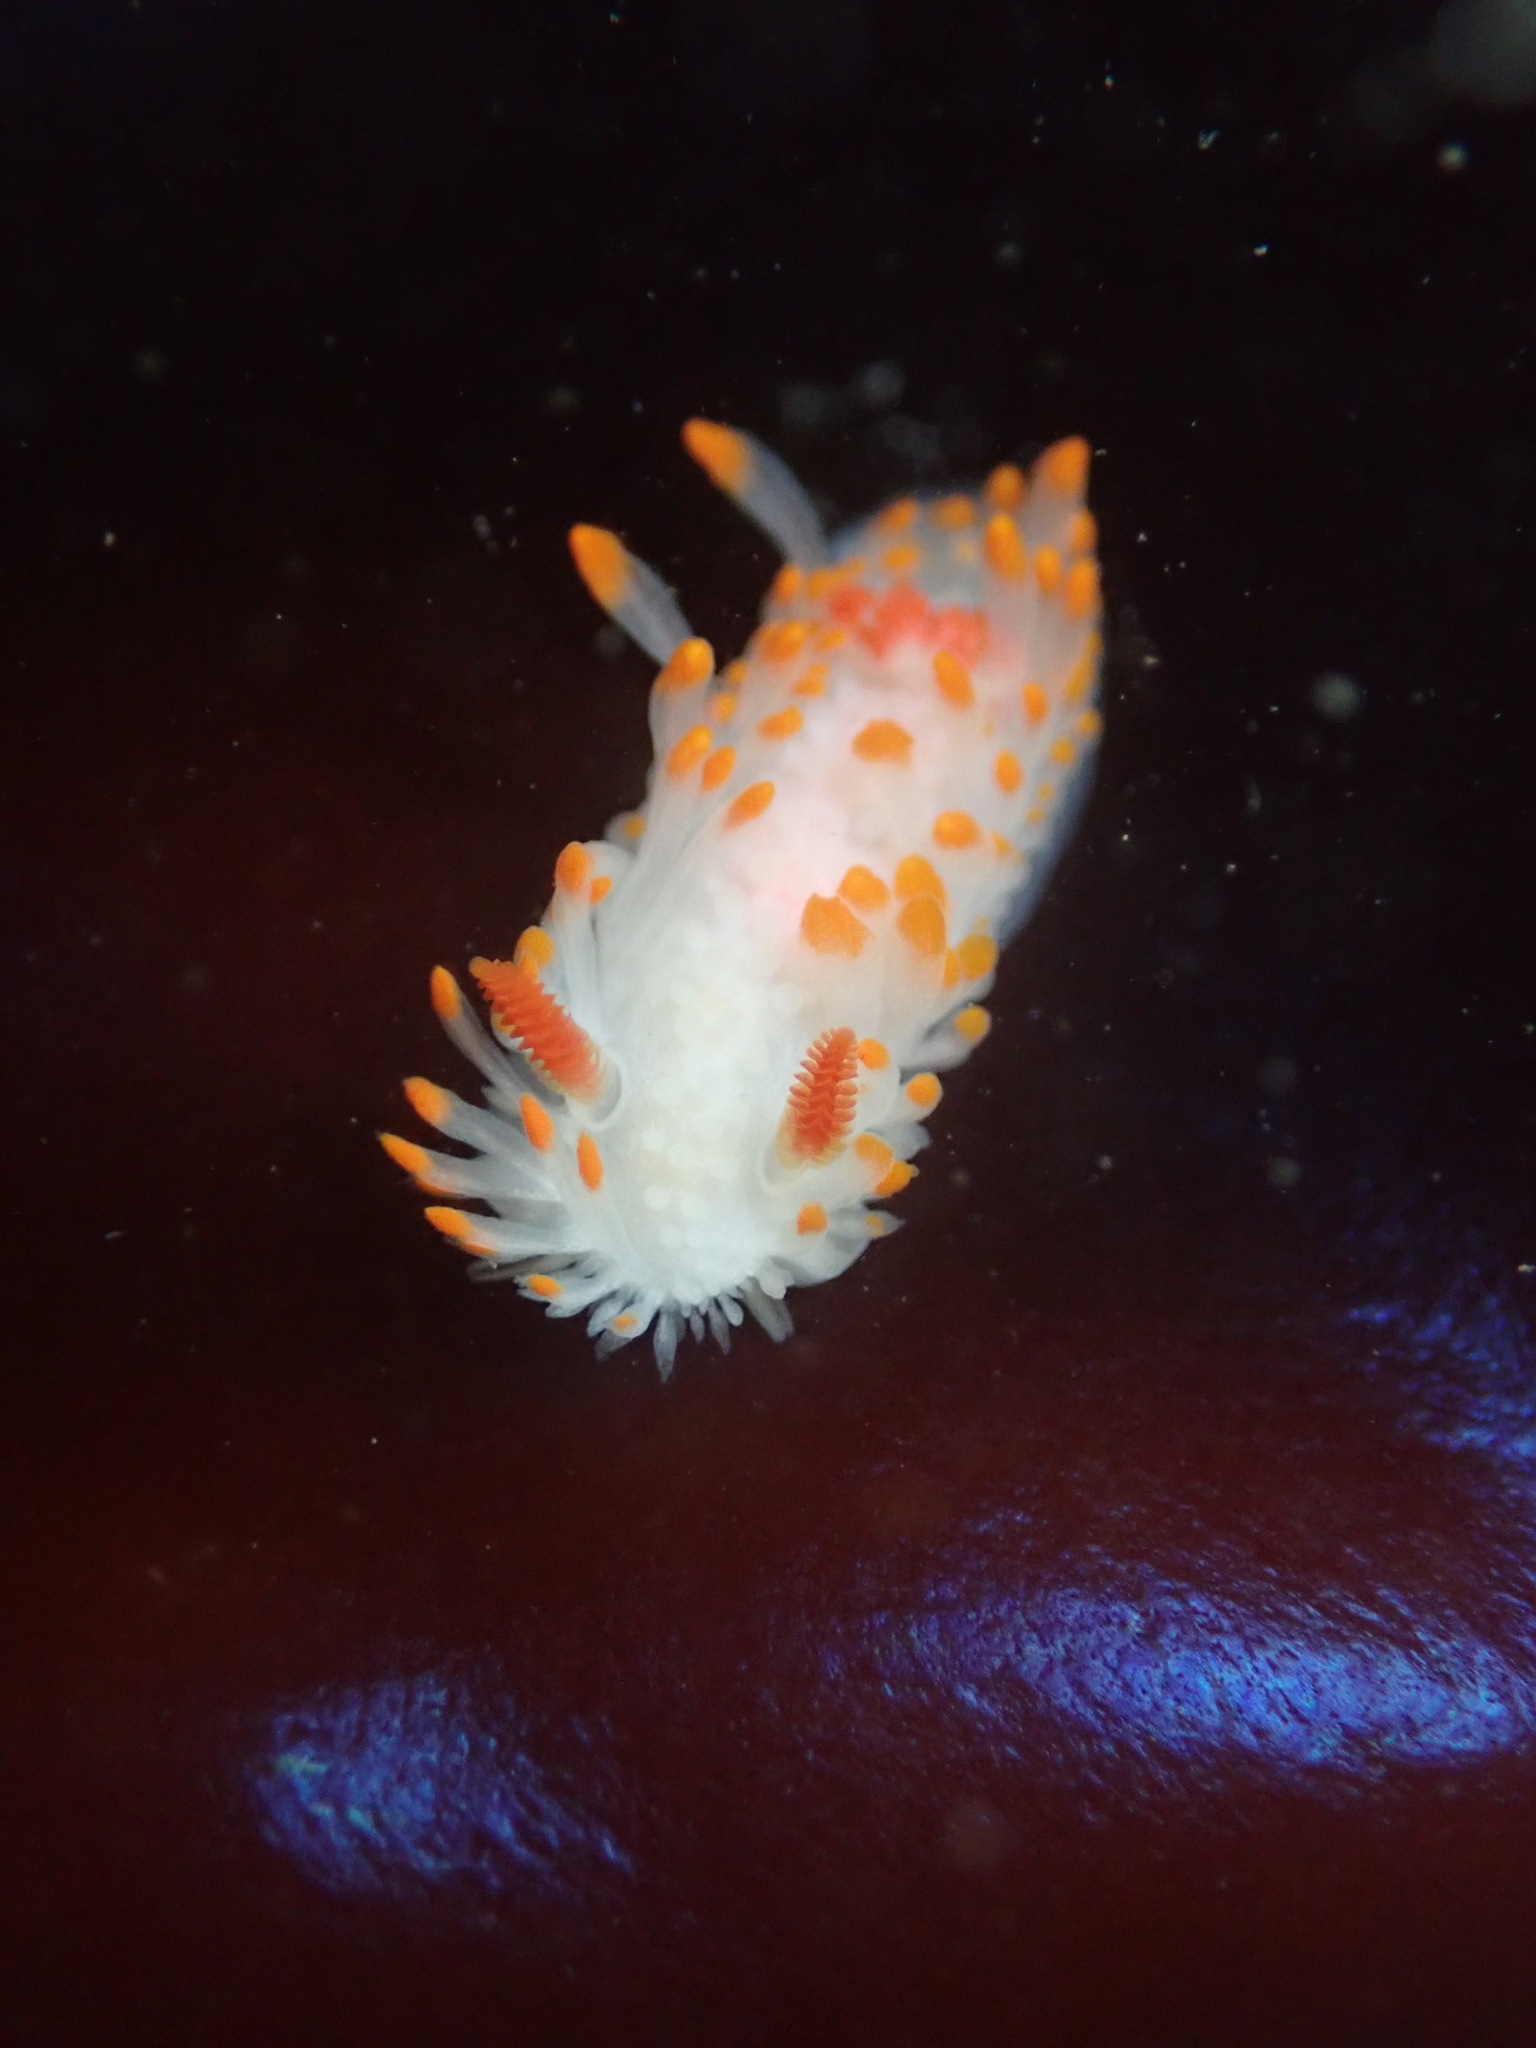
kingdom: Animalia
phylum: Mollusca
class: Gastropoda
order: Nudibranchia
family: Polyceridae
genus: Limacia
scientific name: Limacia cockerelli
